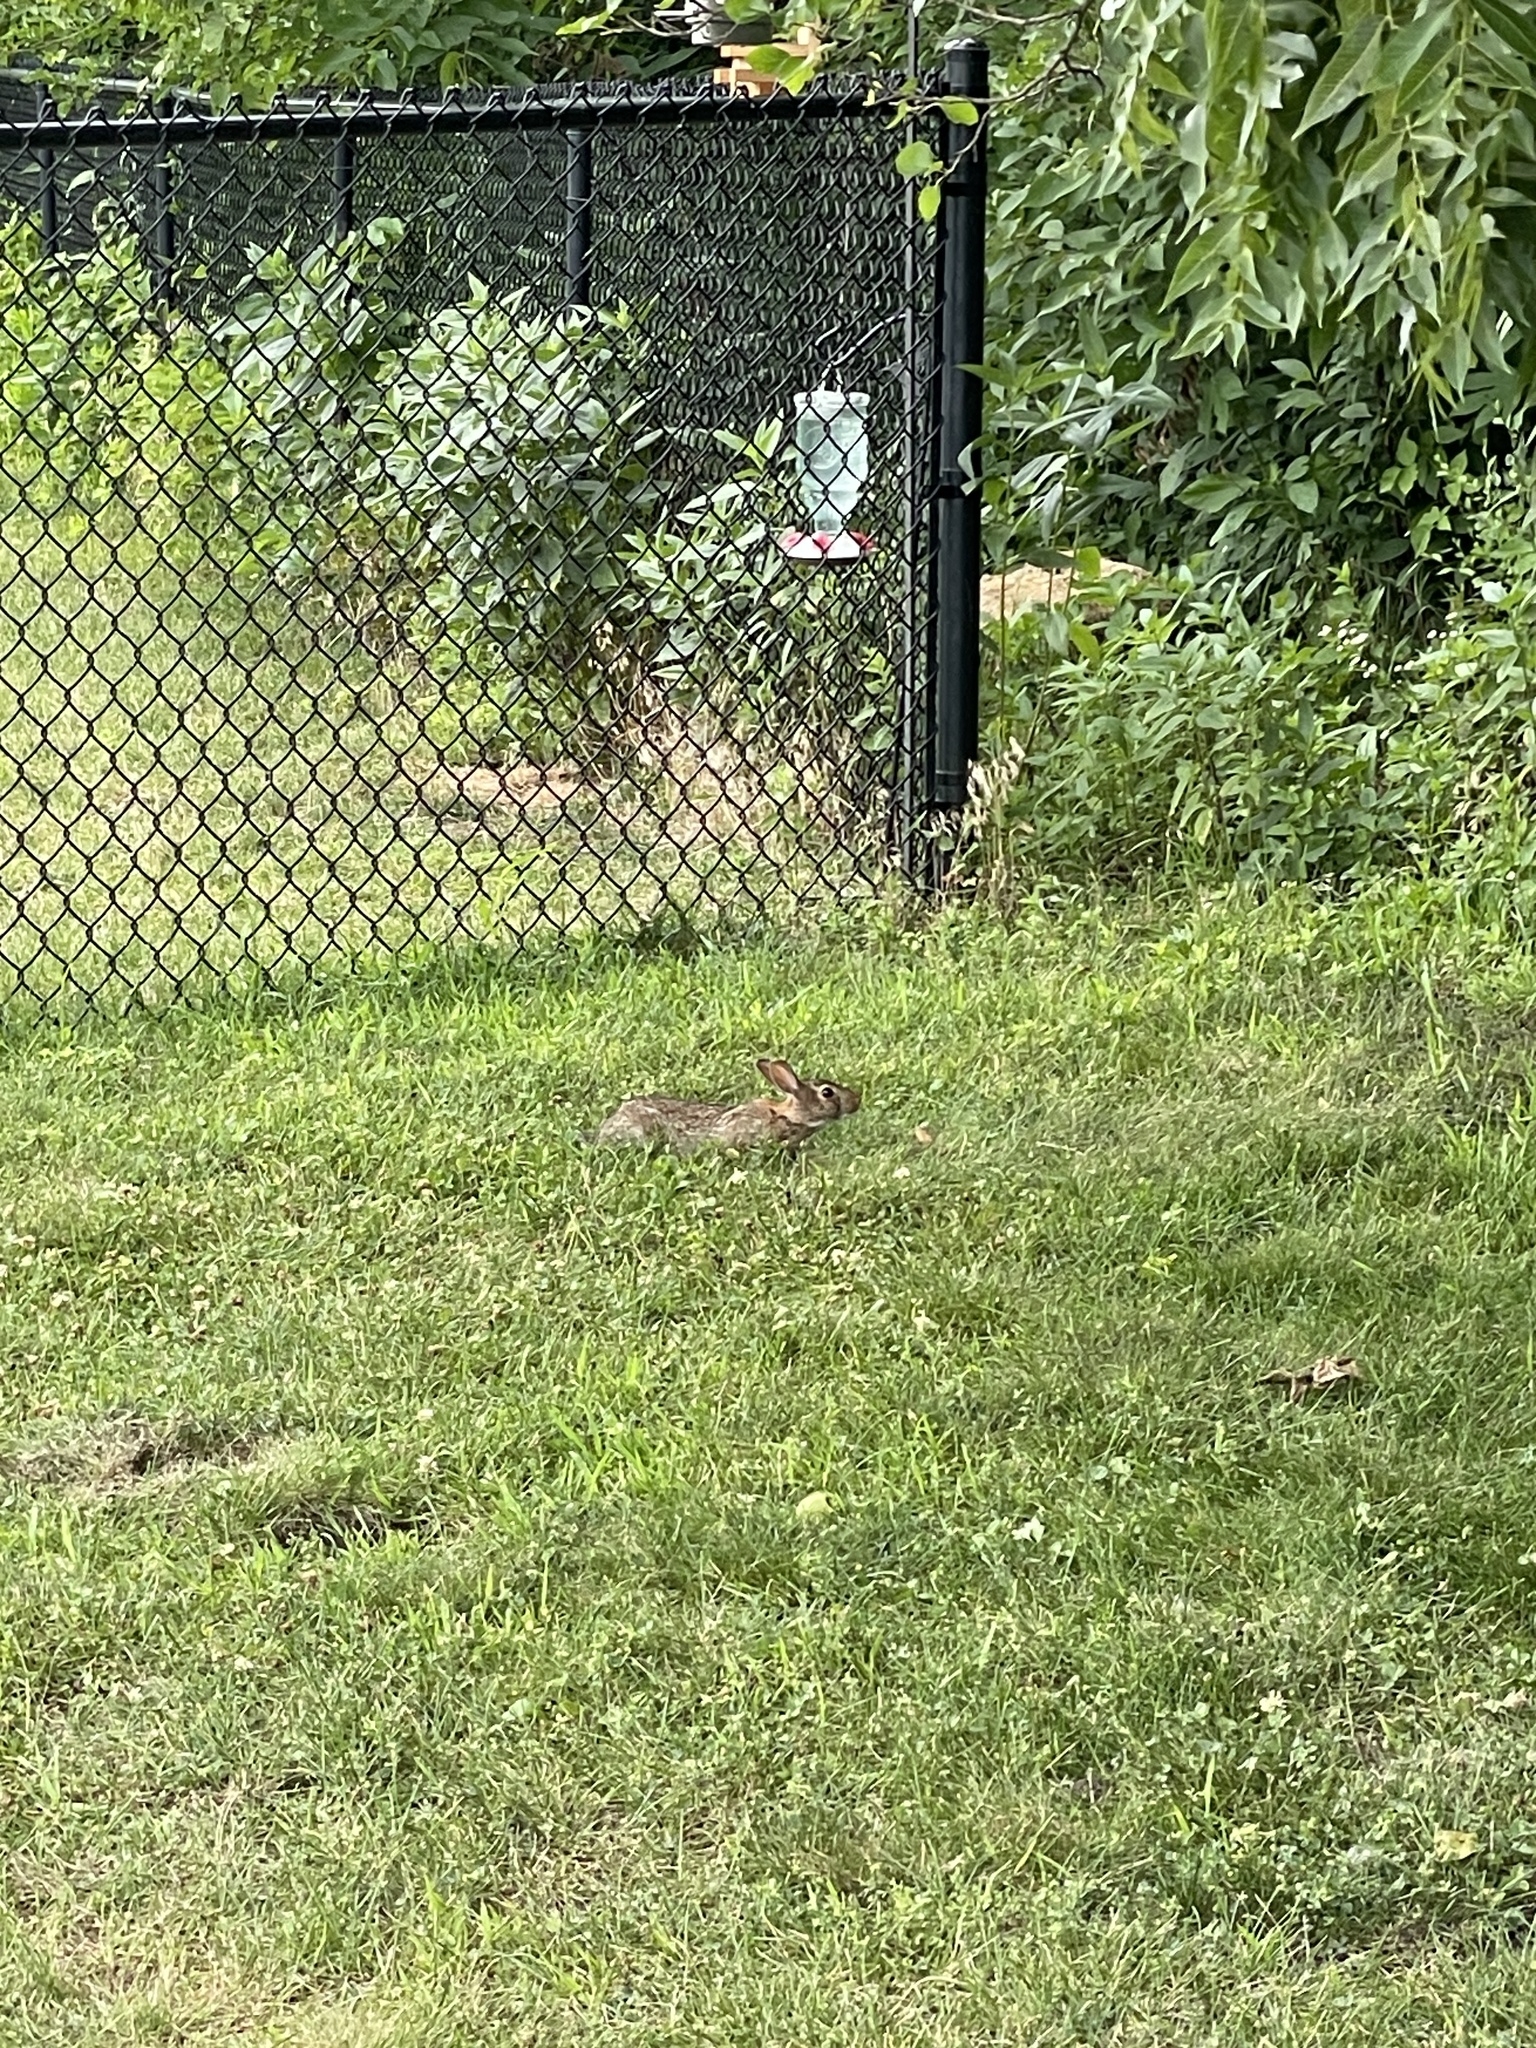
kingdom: Animalia
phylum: Chordata
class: Mammalia
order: Lagomorpha
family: Leporidae
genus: Sylvilagus
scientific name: Sylvilagus floridanus
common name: Eastern cottontail
